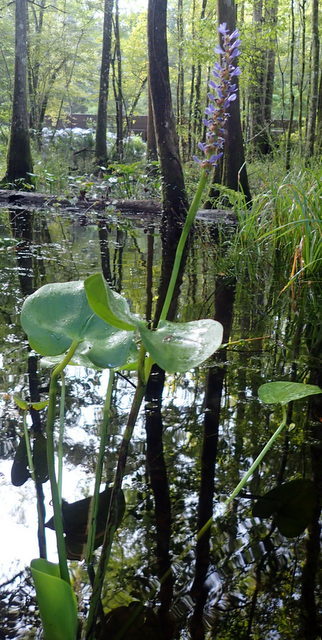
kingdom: Plantae
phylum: Tracheophyta
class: Liliopsida
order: Commelinales
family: Pontederiaceae
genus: Pontederia
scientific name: Pontederia cordata
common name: Pickerelweed
